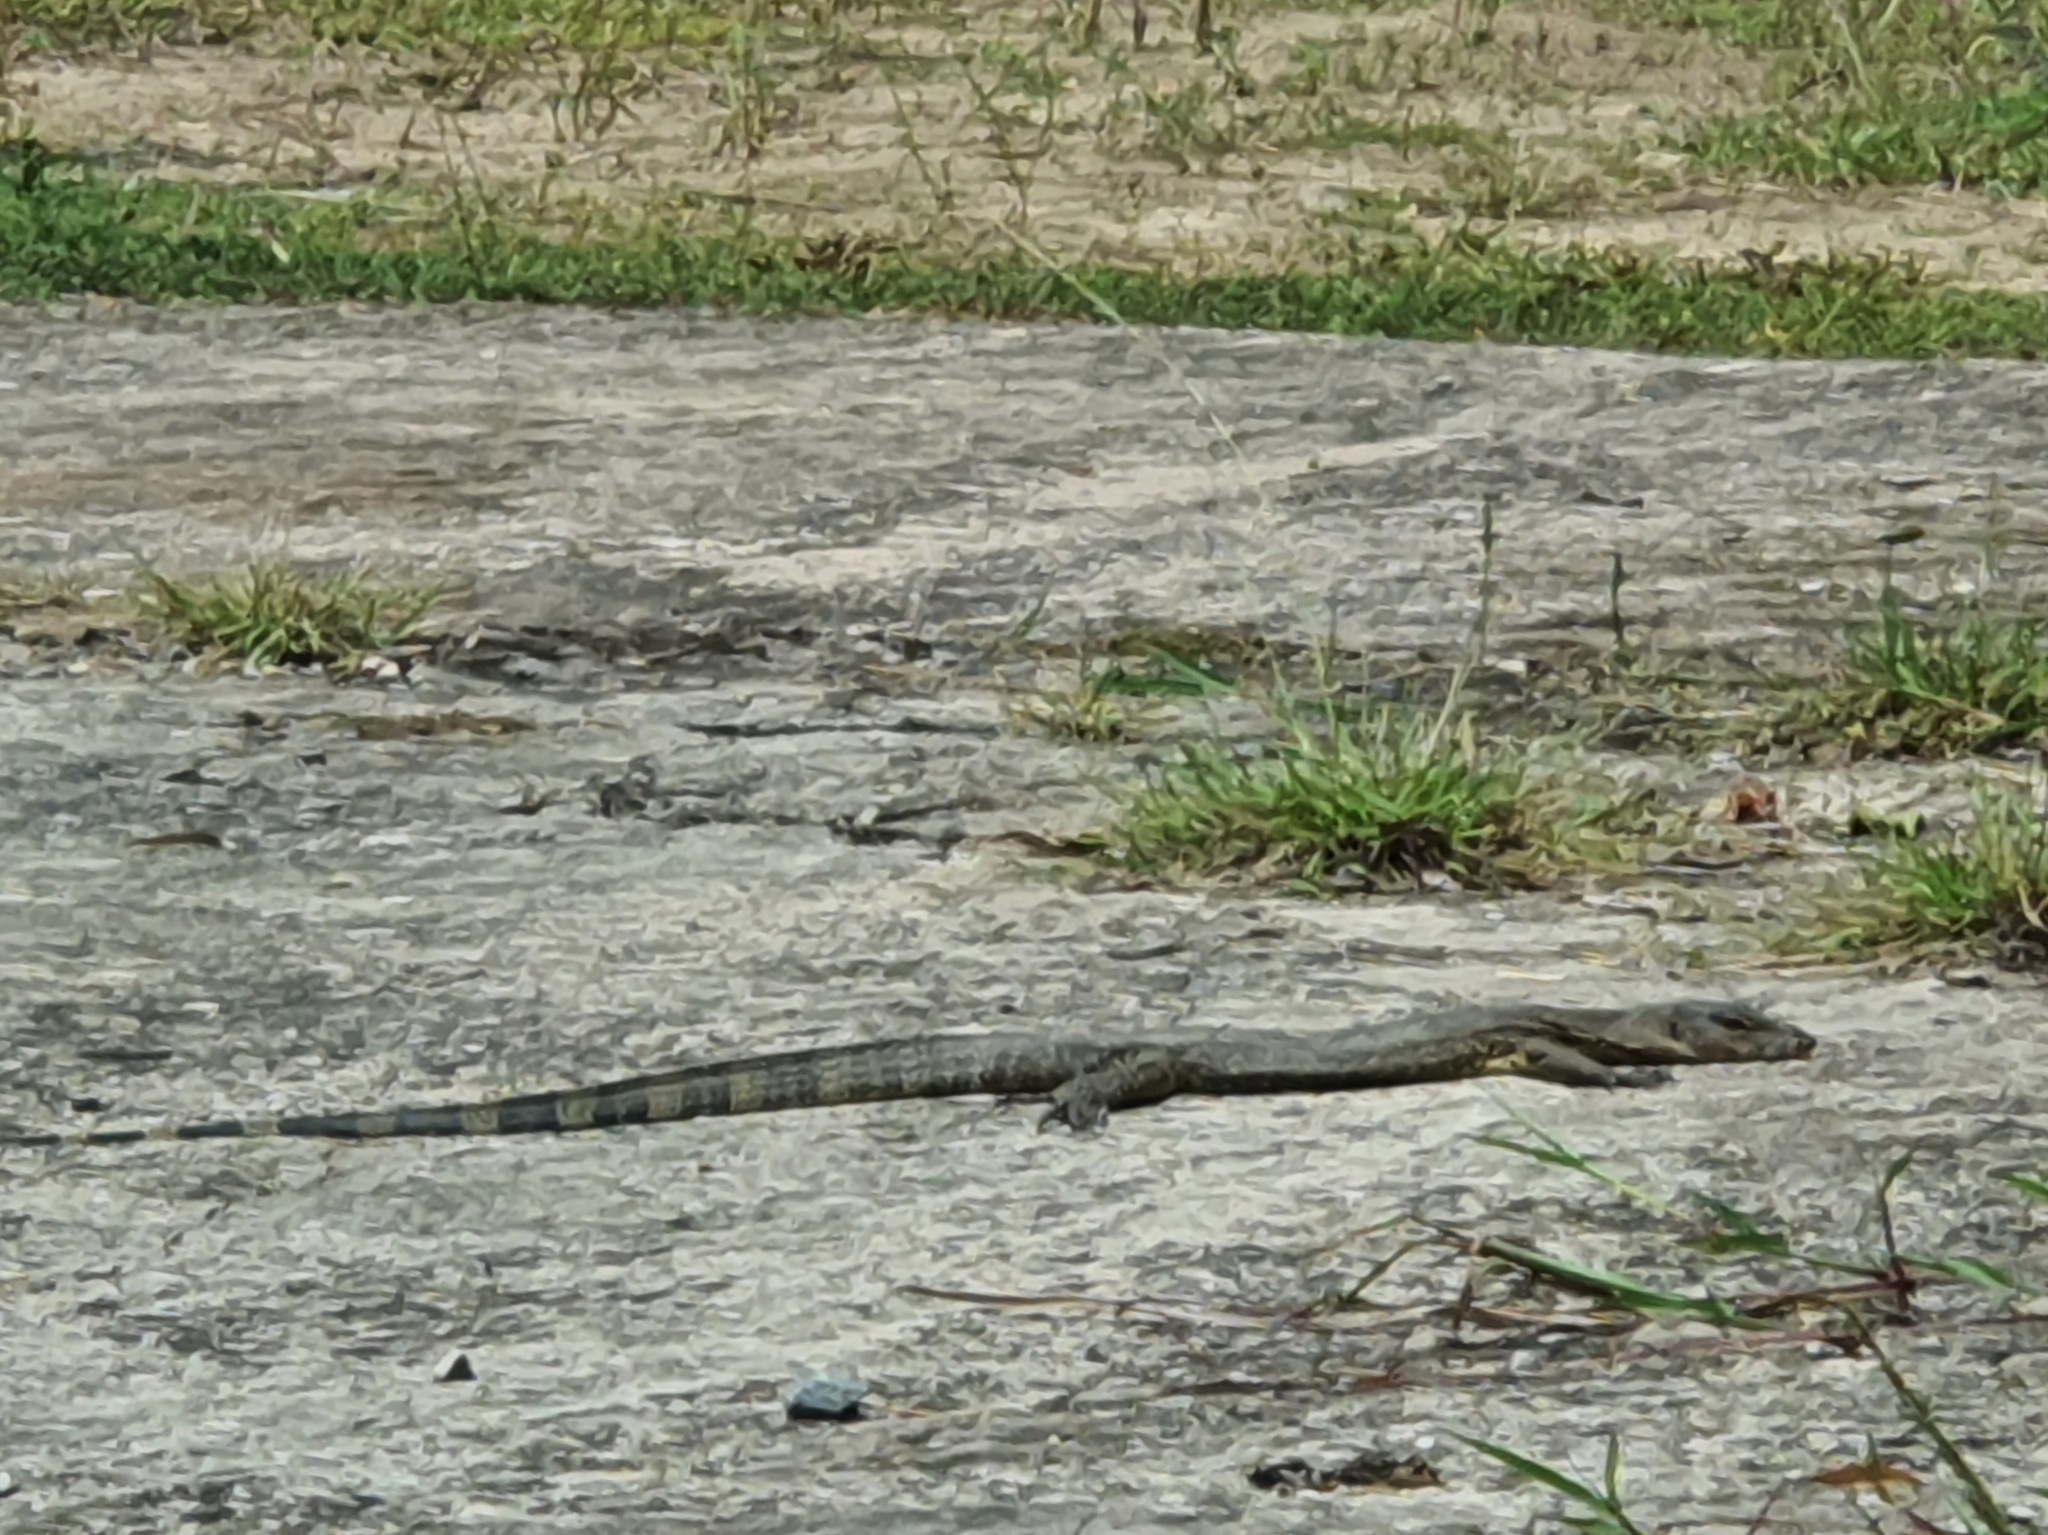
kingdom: Animalia
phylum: Chordata
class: Squamata
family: Varanidae
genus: Varanus
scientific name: Varanus salvator
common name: Common water monitor
